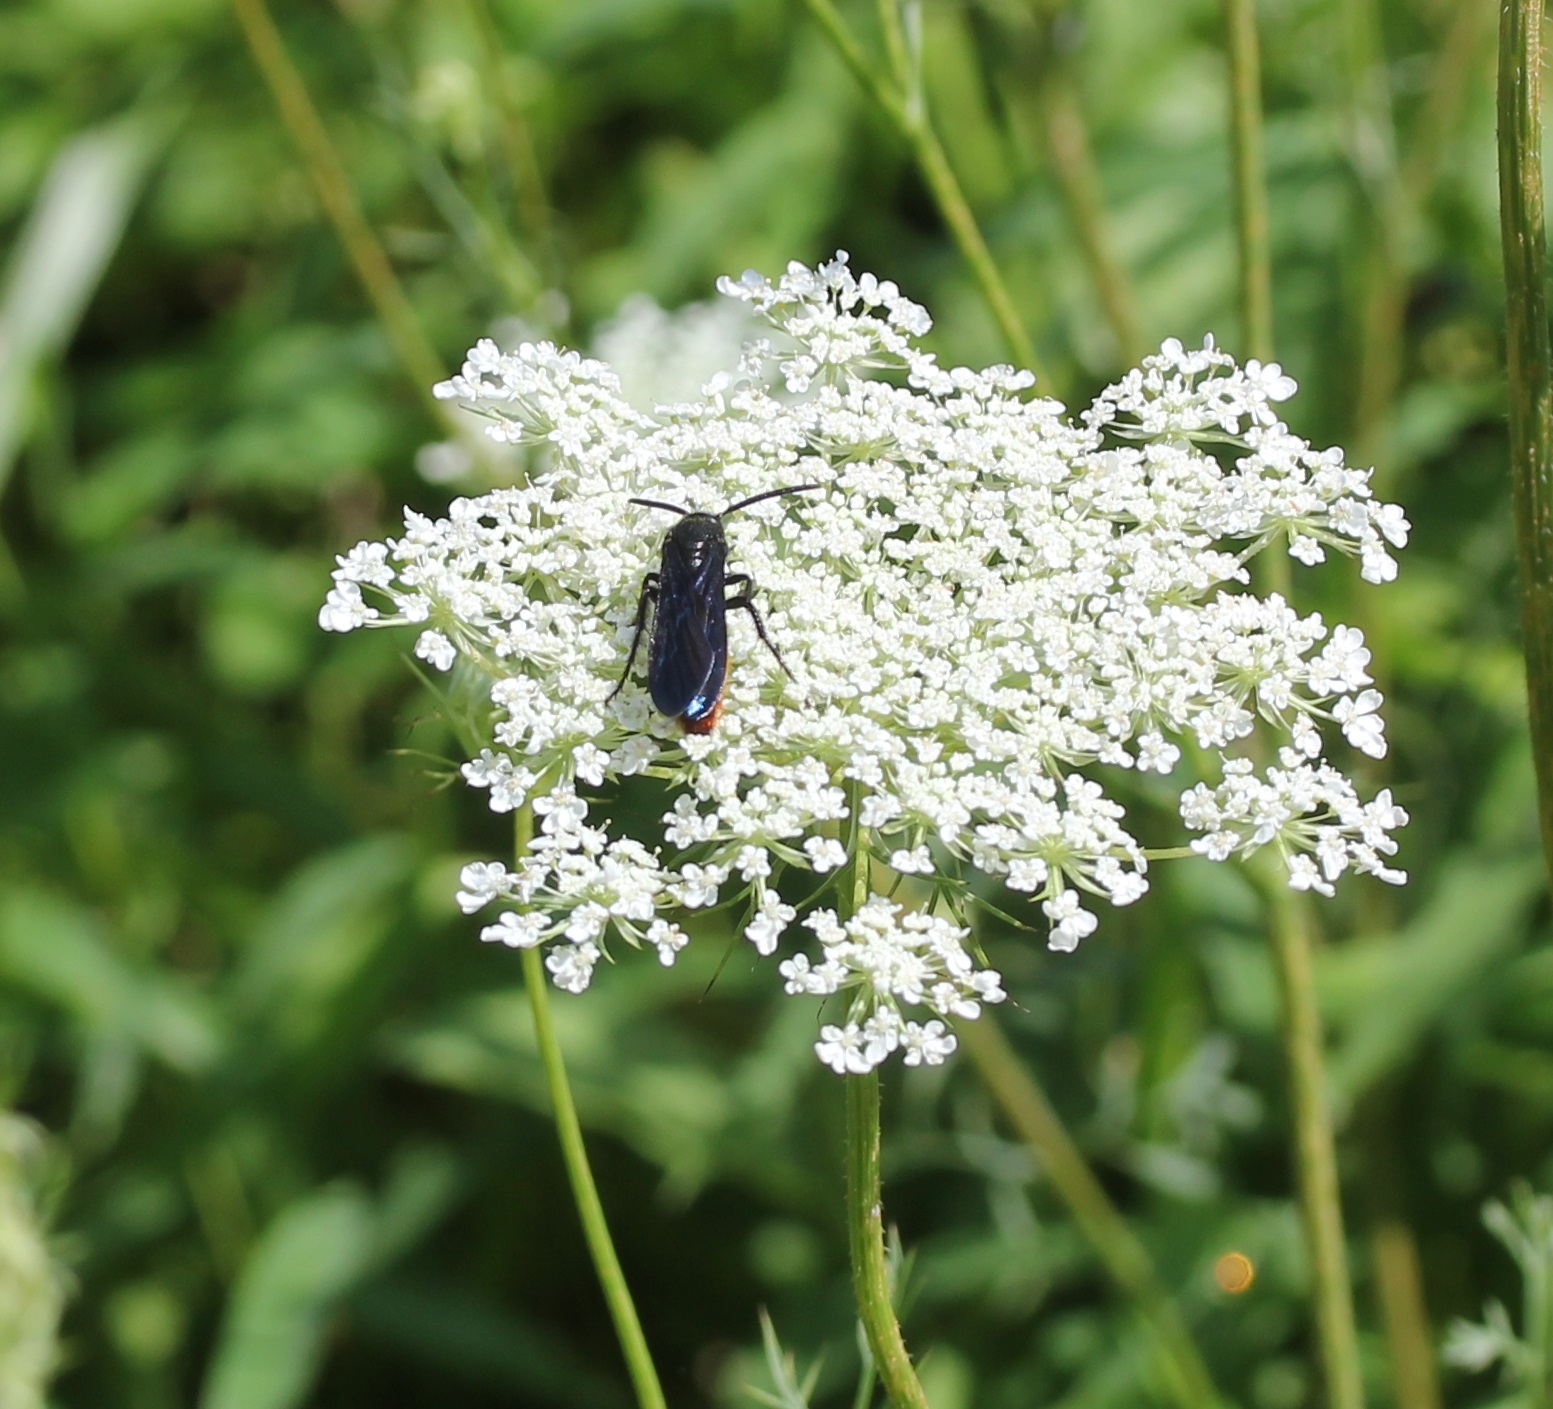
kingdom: Animalia
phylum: Arthropoda
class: Insecta
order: Hymenoptera
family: Scoliidae
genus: Scolia
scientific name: Scolia dubia
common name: Blue-winged scoliid wasp
